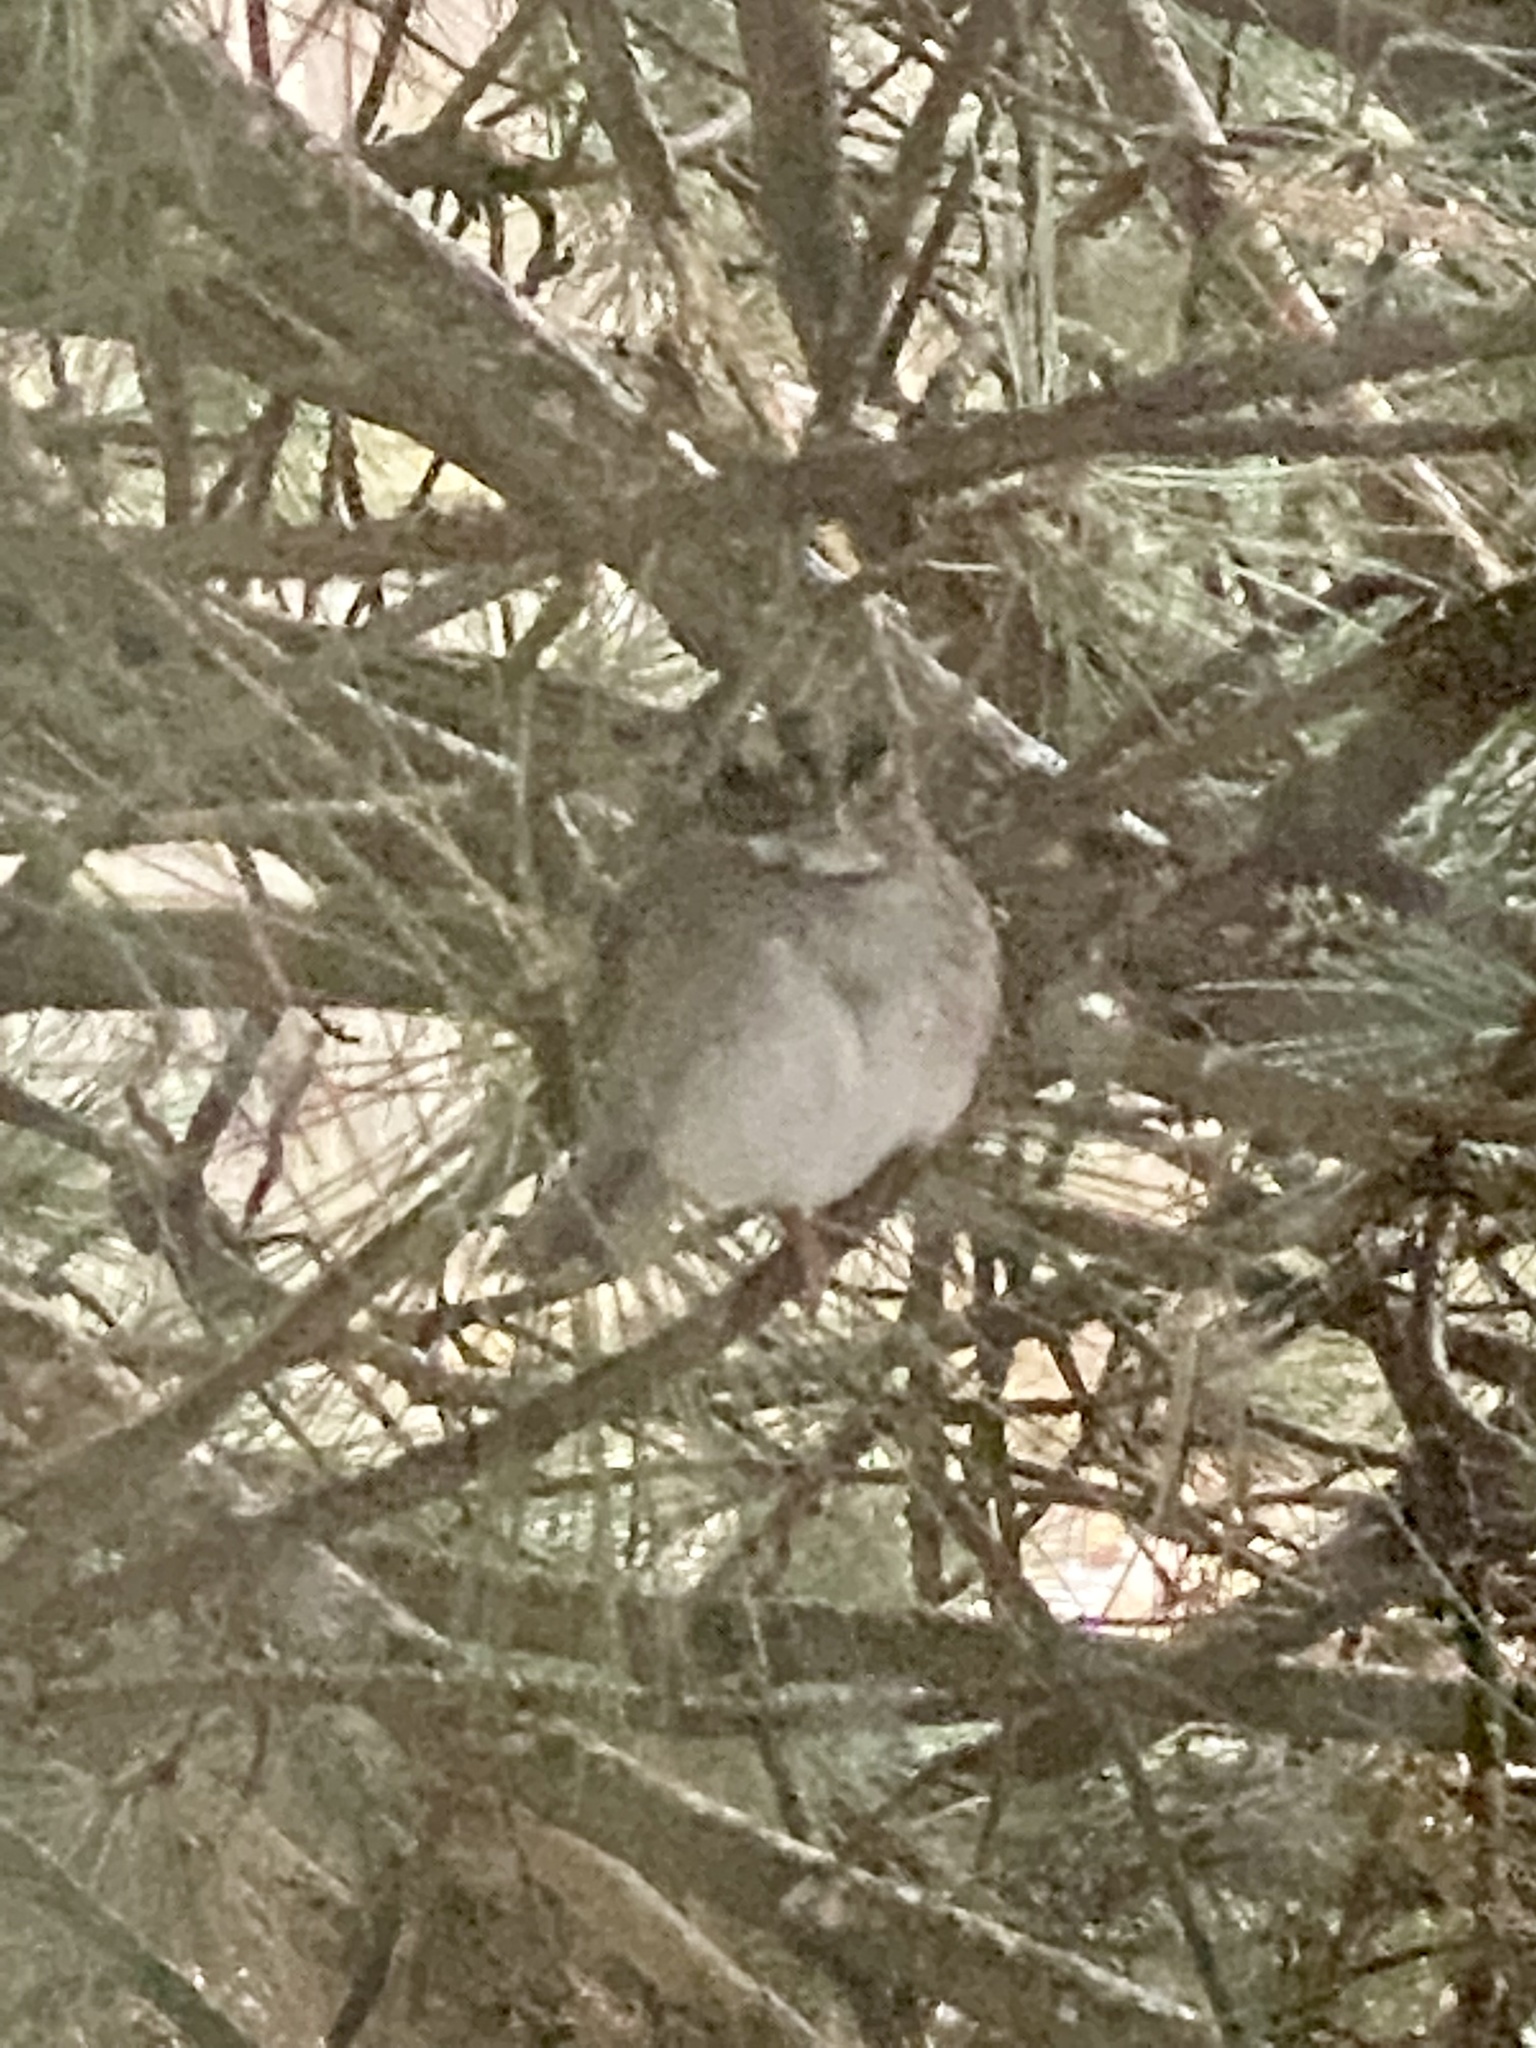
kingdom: Animalia
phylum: Chordata
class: Aves
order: Passeriformes
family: Passerellidae
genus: Zonotrichia
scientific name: Zonotrichia albicollis
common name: White-throated sparrow
